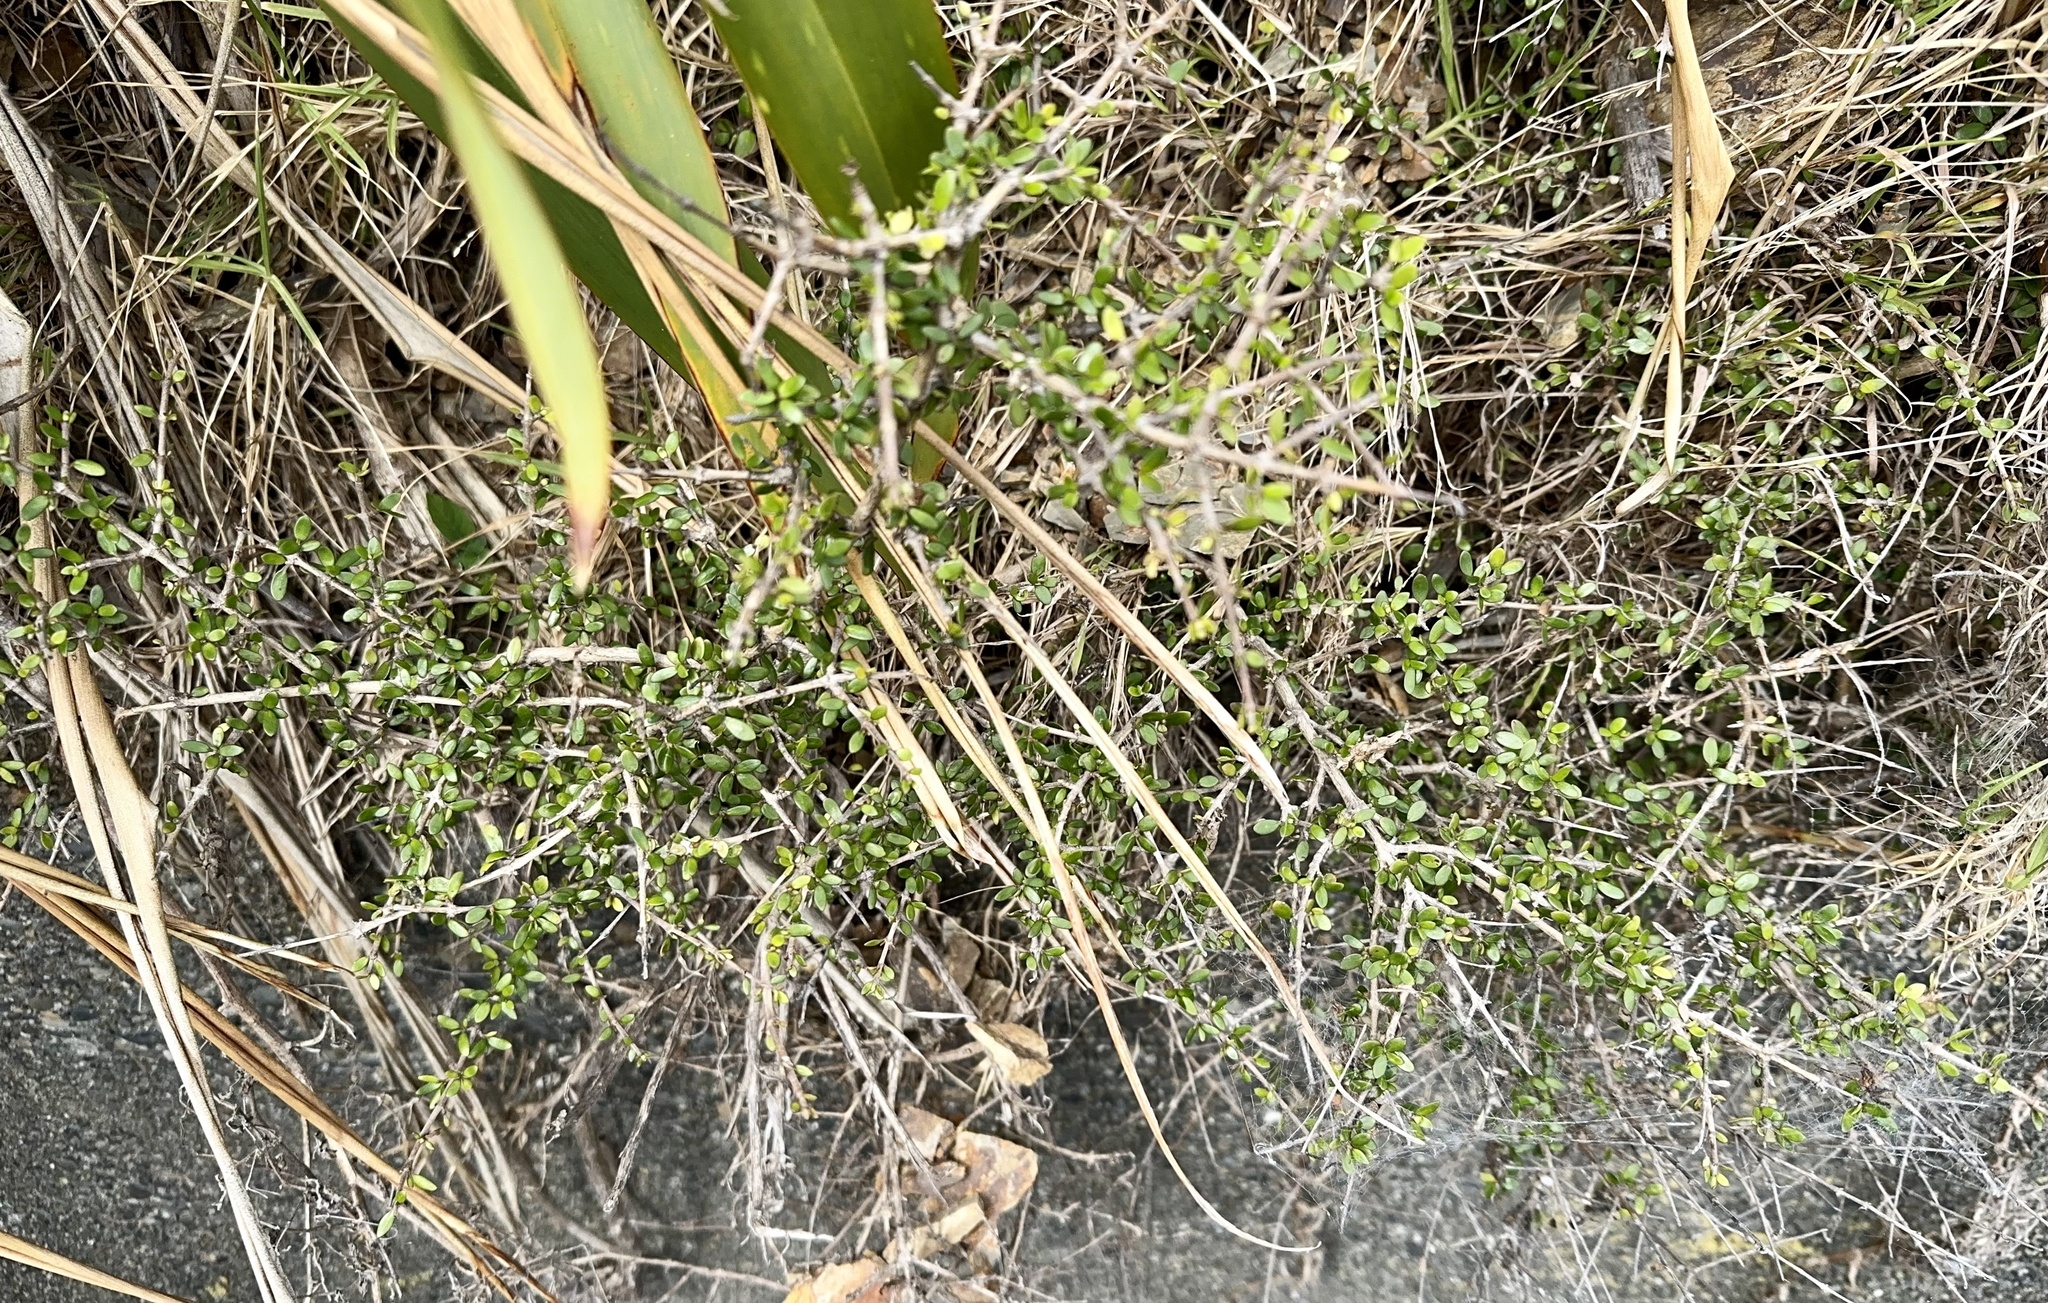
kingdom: Plantae
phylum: Tracheophyta
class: Magnoliopsida
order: Gentianales
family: Rubiaceae
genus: Coprosma
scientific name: Coprosma propinqua
